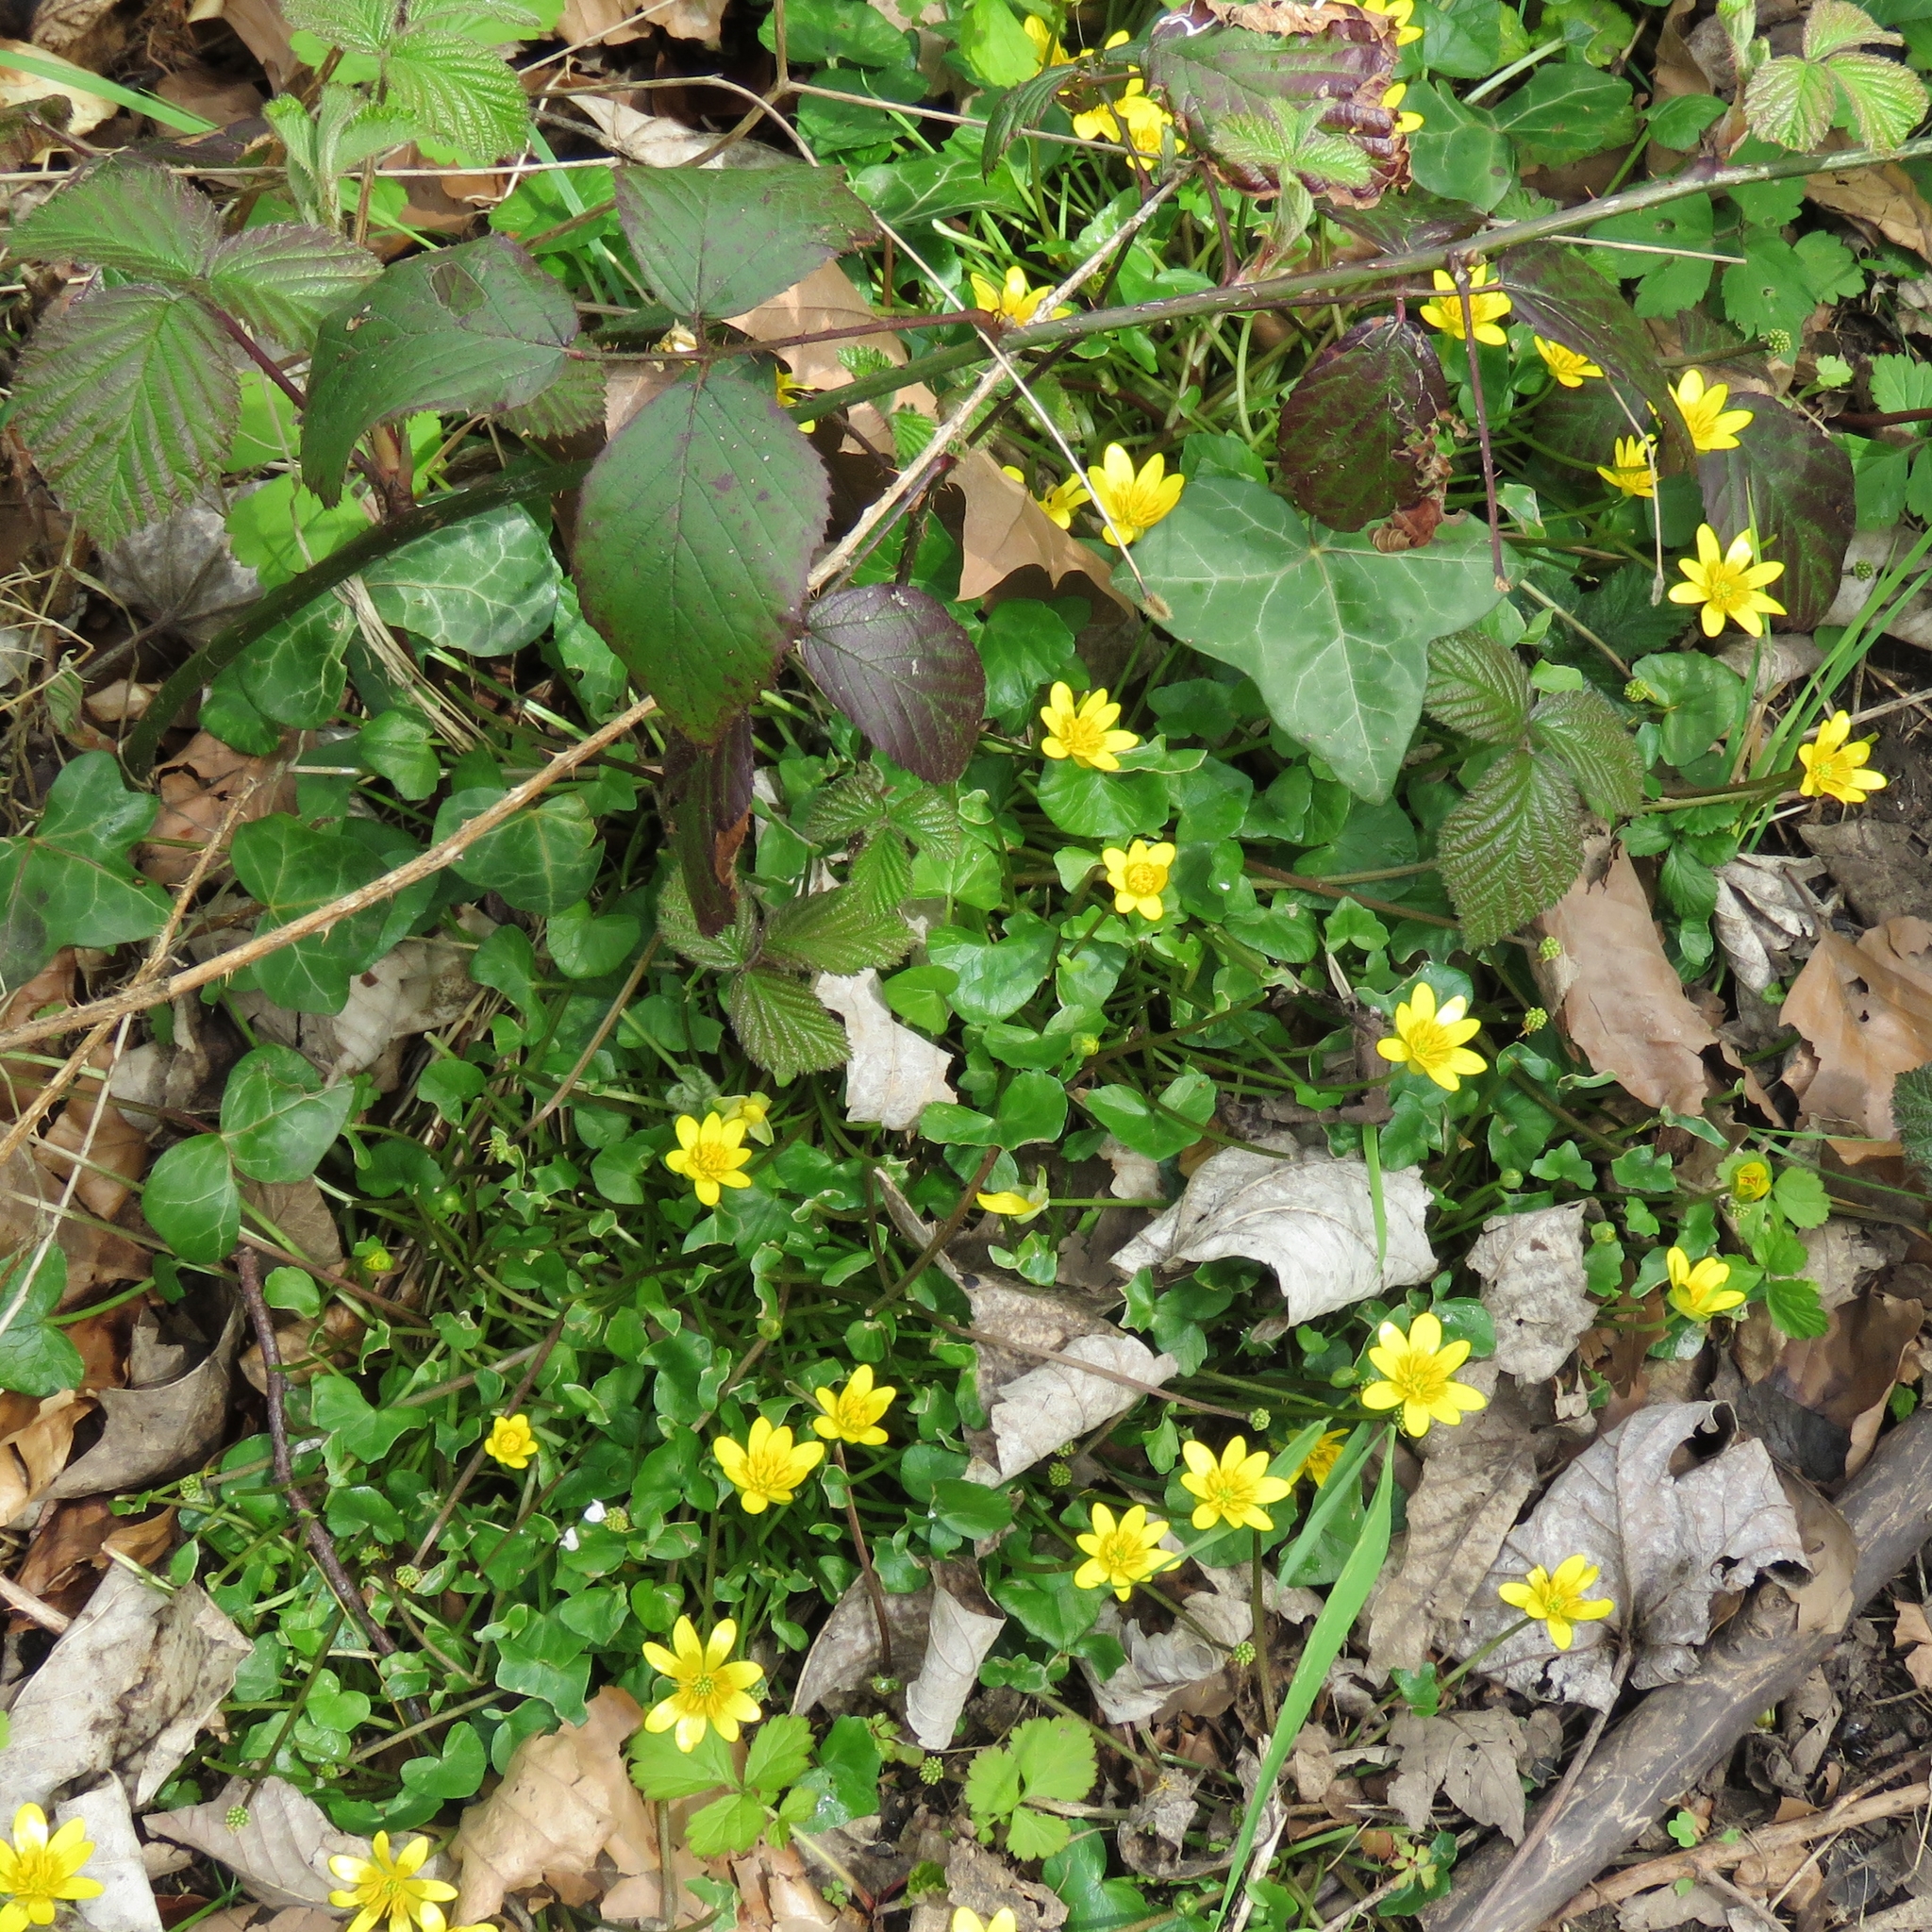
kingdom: Plantae
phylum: Tracheophyta
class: Magnoliopsida
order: Ranunculales
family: Ranunculaceae
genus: Ficaria
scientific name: Ficaria verna
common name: Lesser celandine
